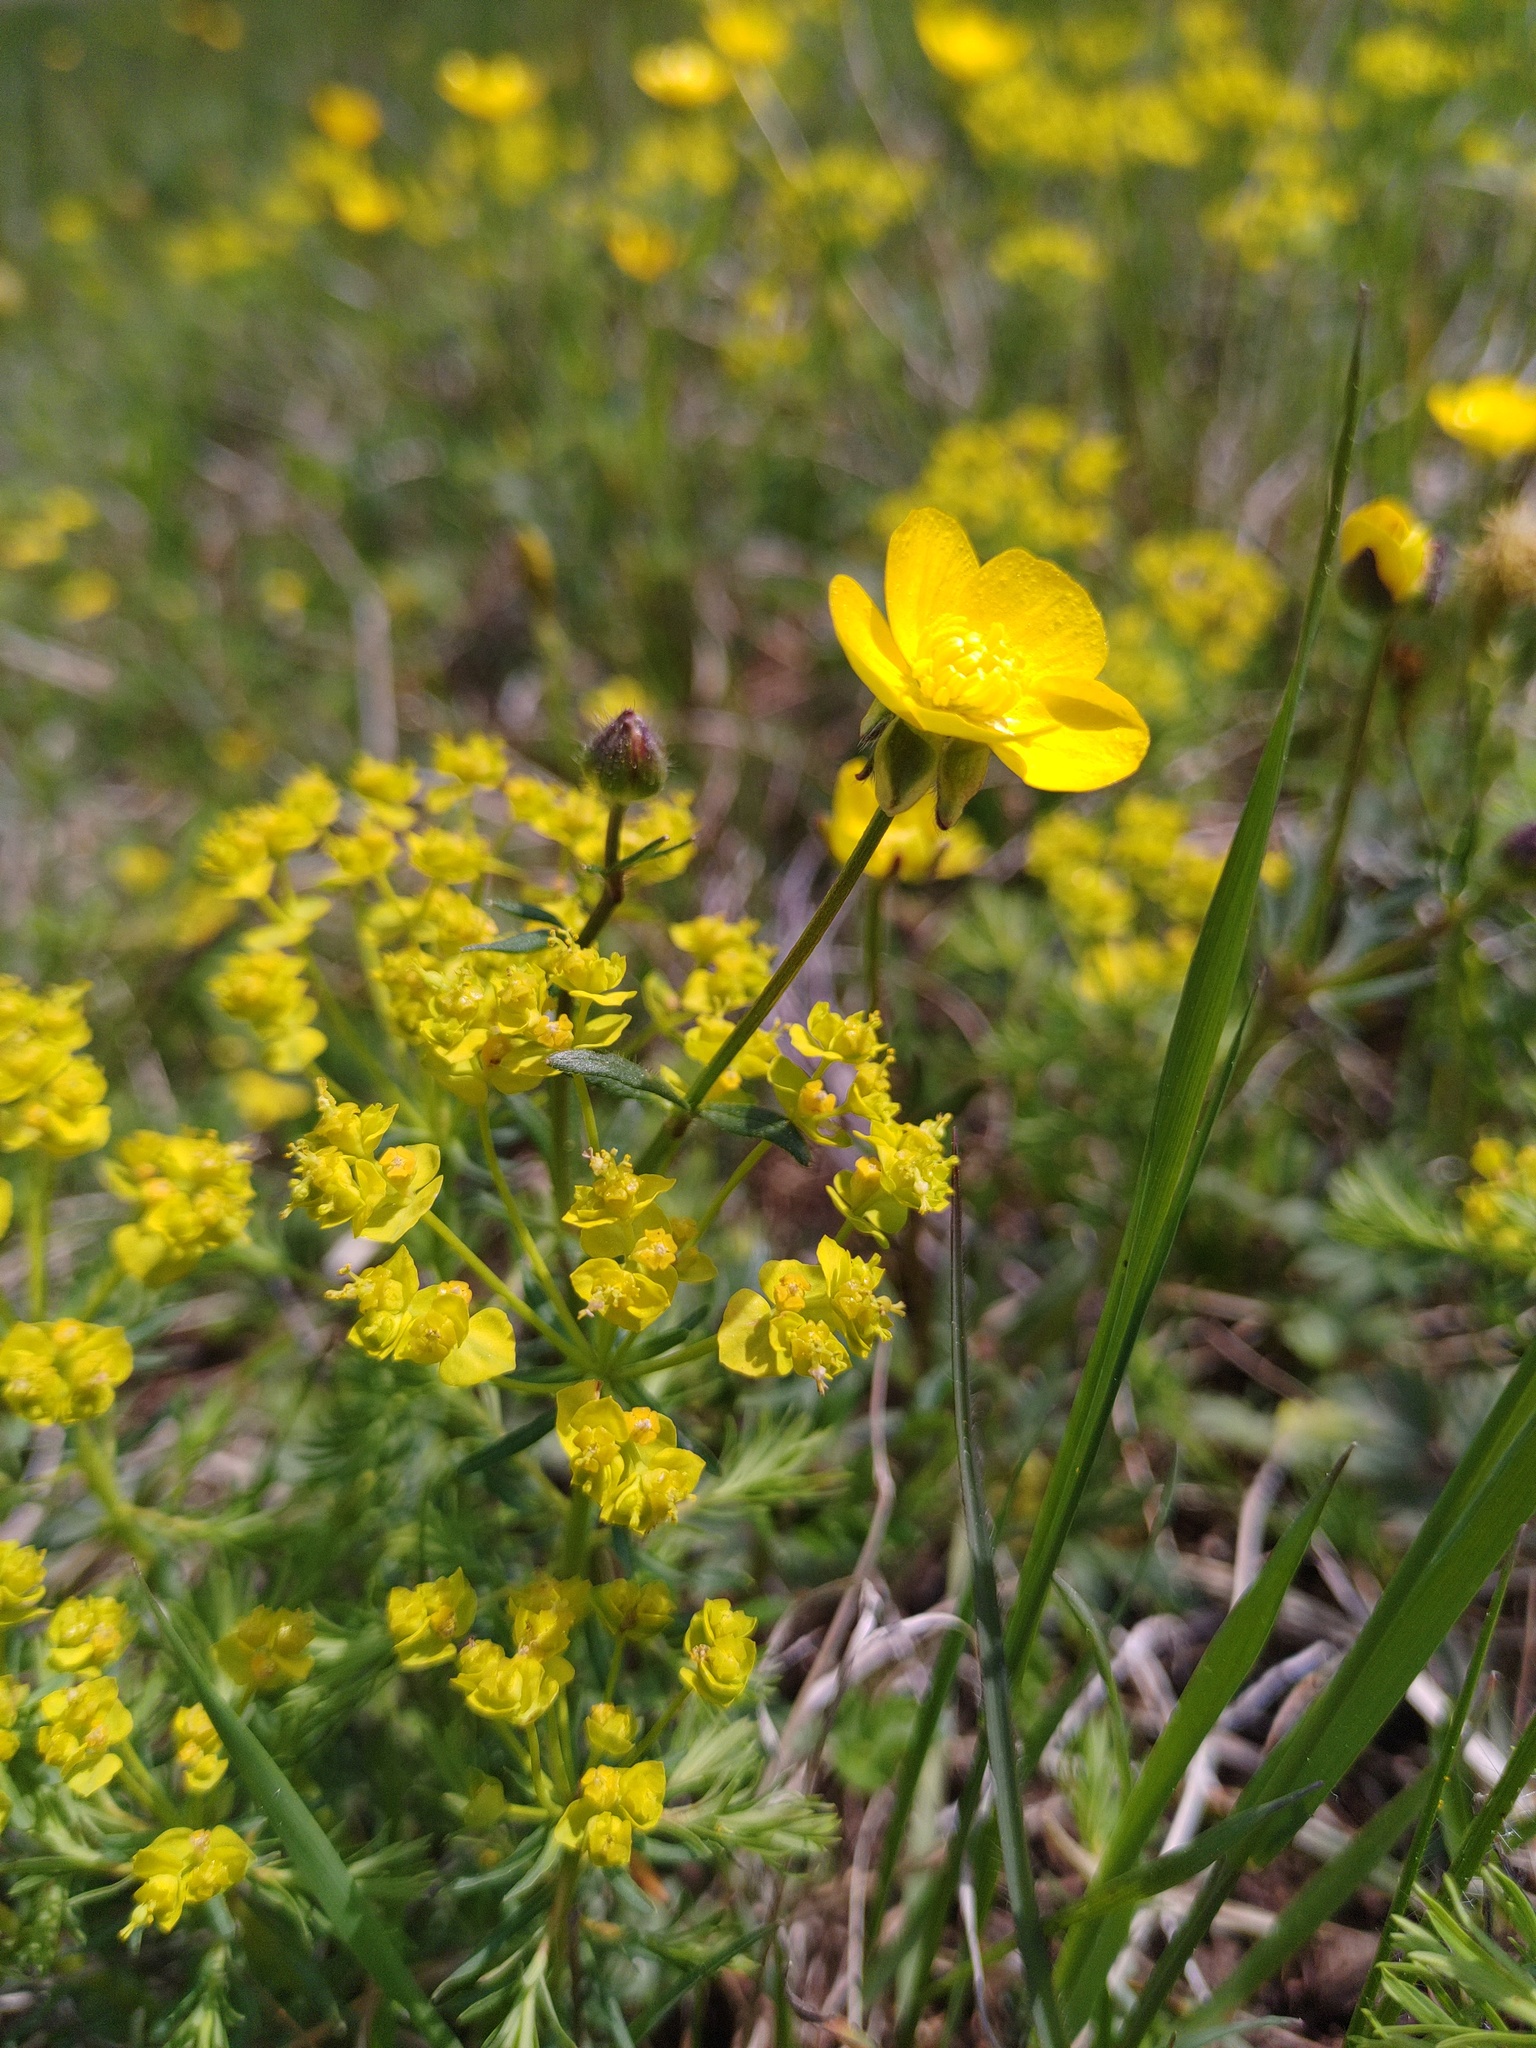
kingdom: Plantae
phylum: Tracheophyta
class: Magnoliopsida
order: Ranunculales
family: Ranunculaceae
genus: Ranunculus
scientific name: Ranunculus bulbosus
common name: Bulbous buttercup
